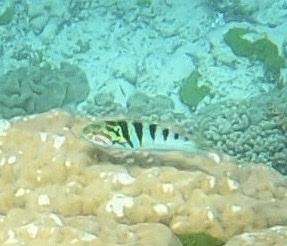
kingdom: Animalia
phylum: Chordata
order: Perciformes
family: Labridae
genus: Thalassoma
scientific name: Thalassoma hardwicke
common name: Sixbar wrasse
